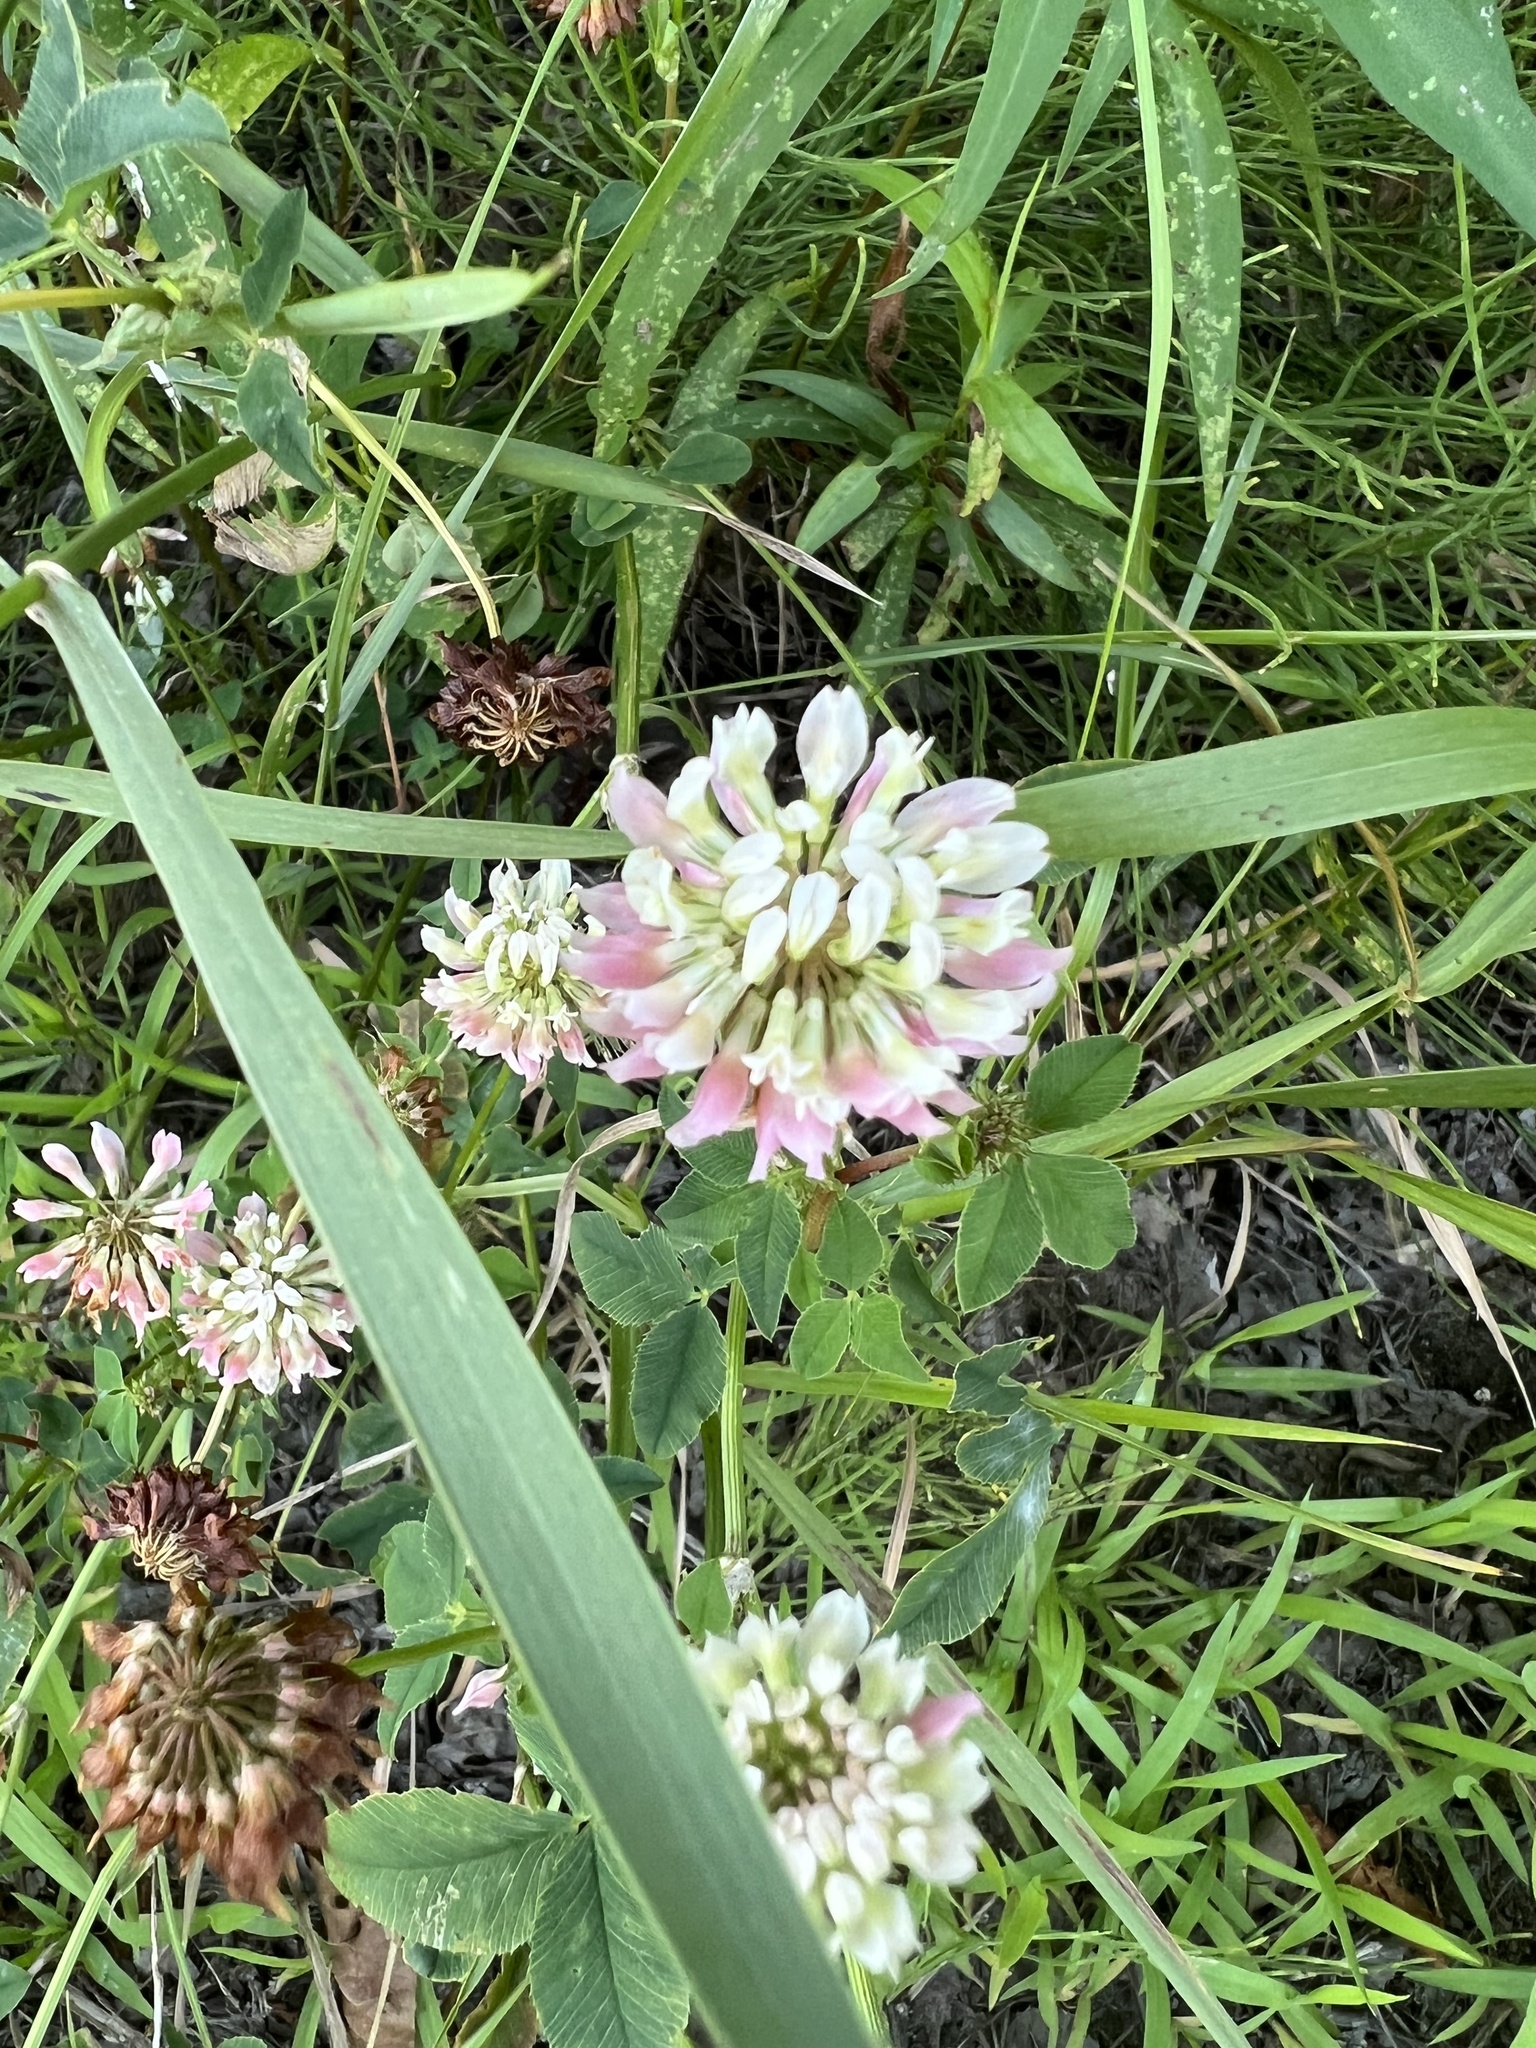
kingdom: Plantae
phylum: Tracheophyta
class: Magnoliopsida
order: Fabales
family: Fabaceae
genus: Trifolium
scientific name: Trifolium hybridum
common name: Alsike clover
